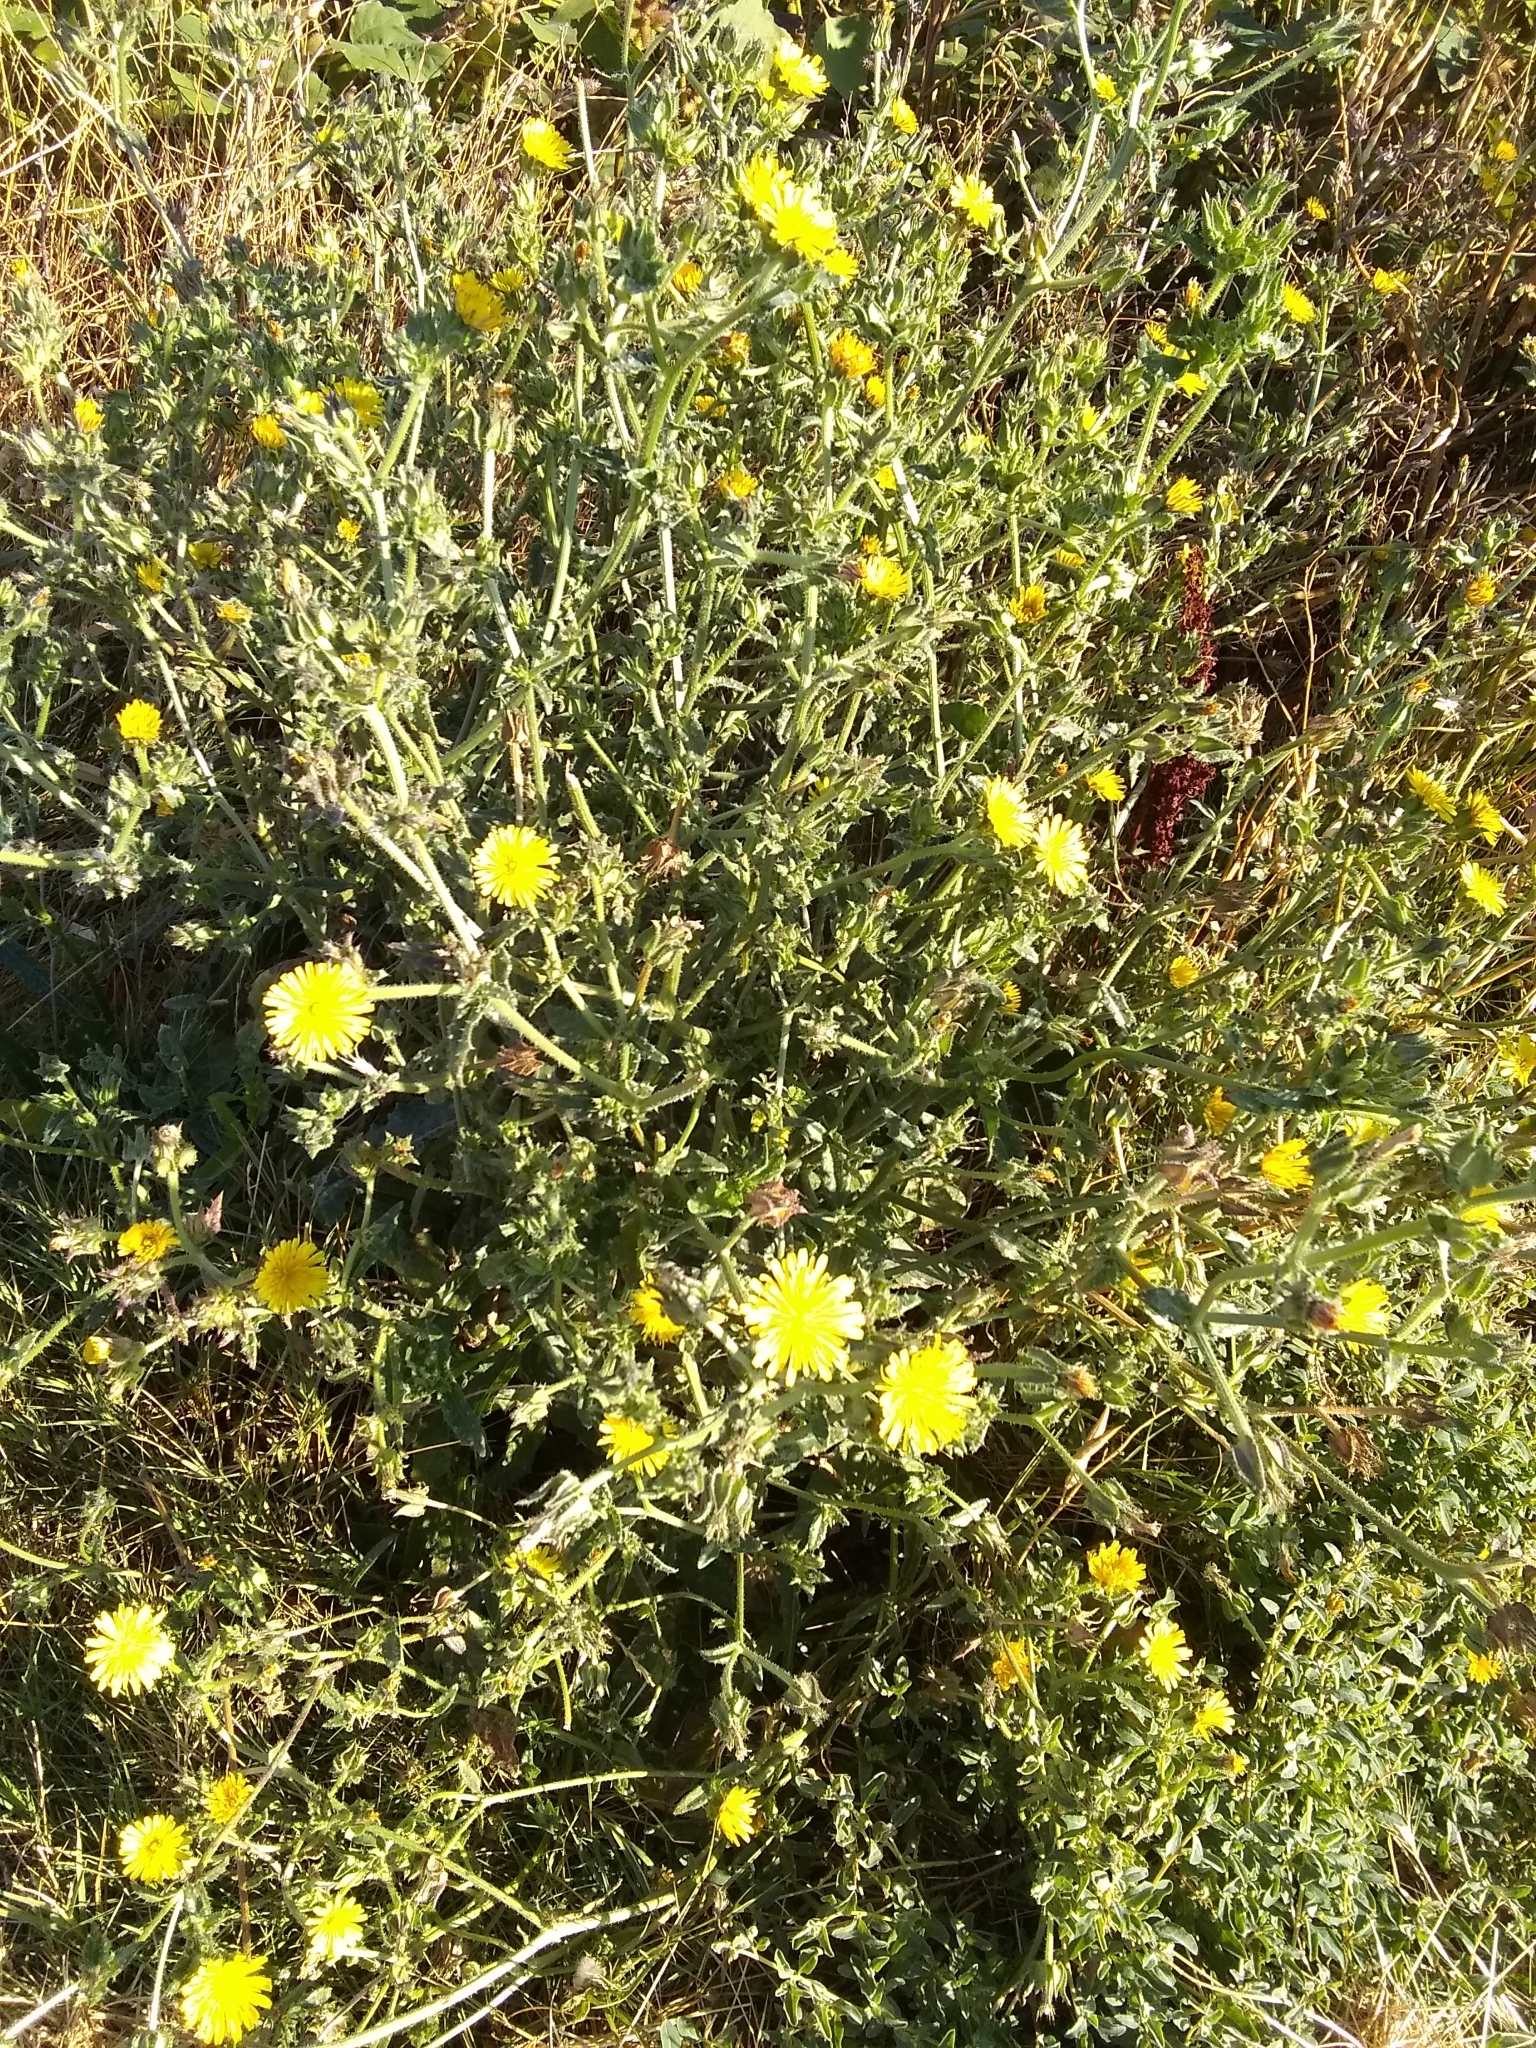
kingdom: Plantae
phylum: Tracheophyta
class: Magnoliopsida
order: Asterales
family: Asteraceae
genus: Helminthotheca
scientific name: Helminthotheca echioides
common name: Ox-tongue
